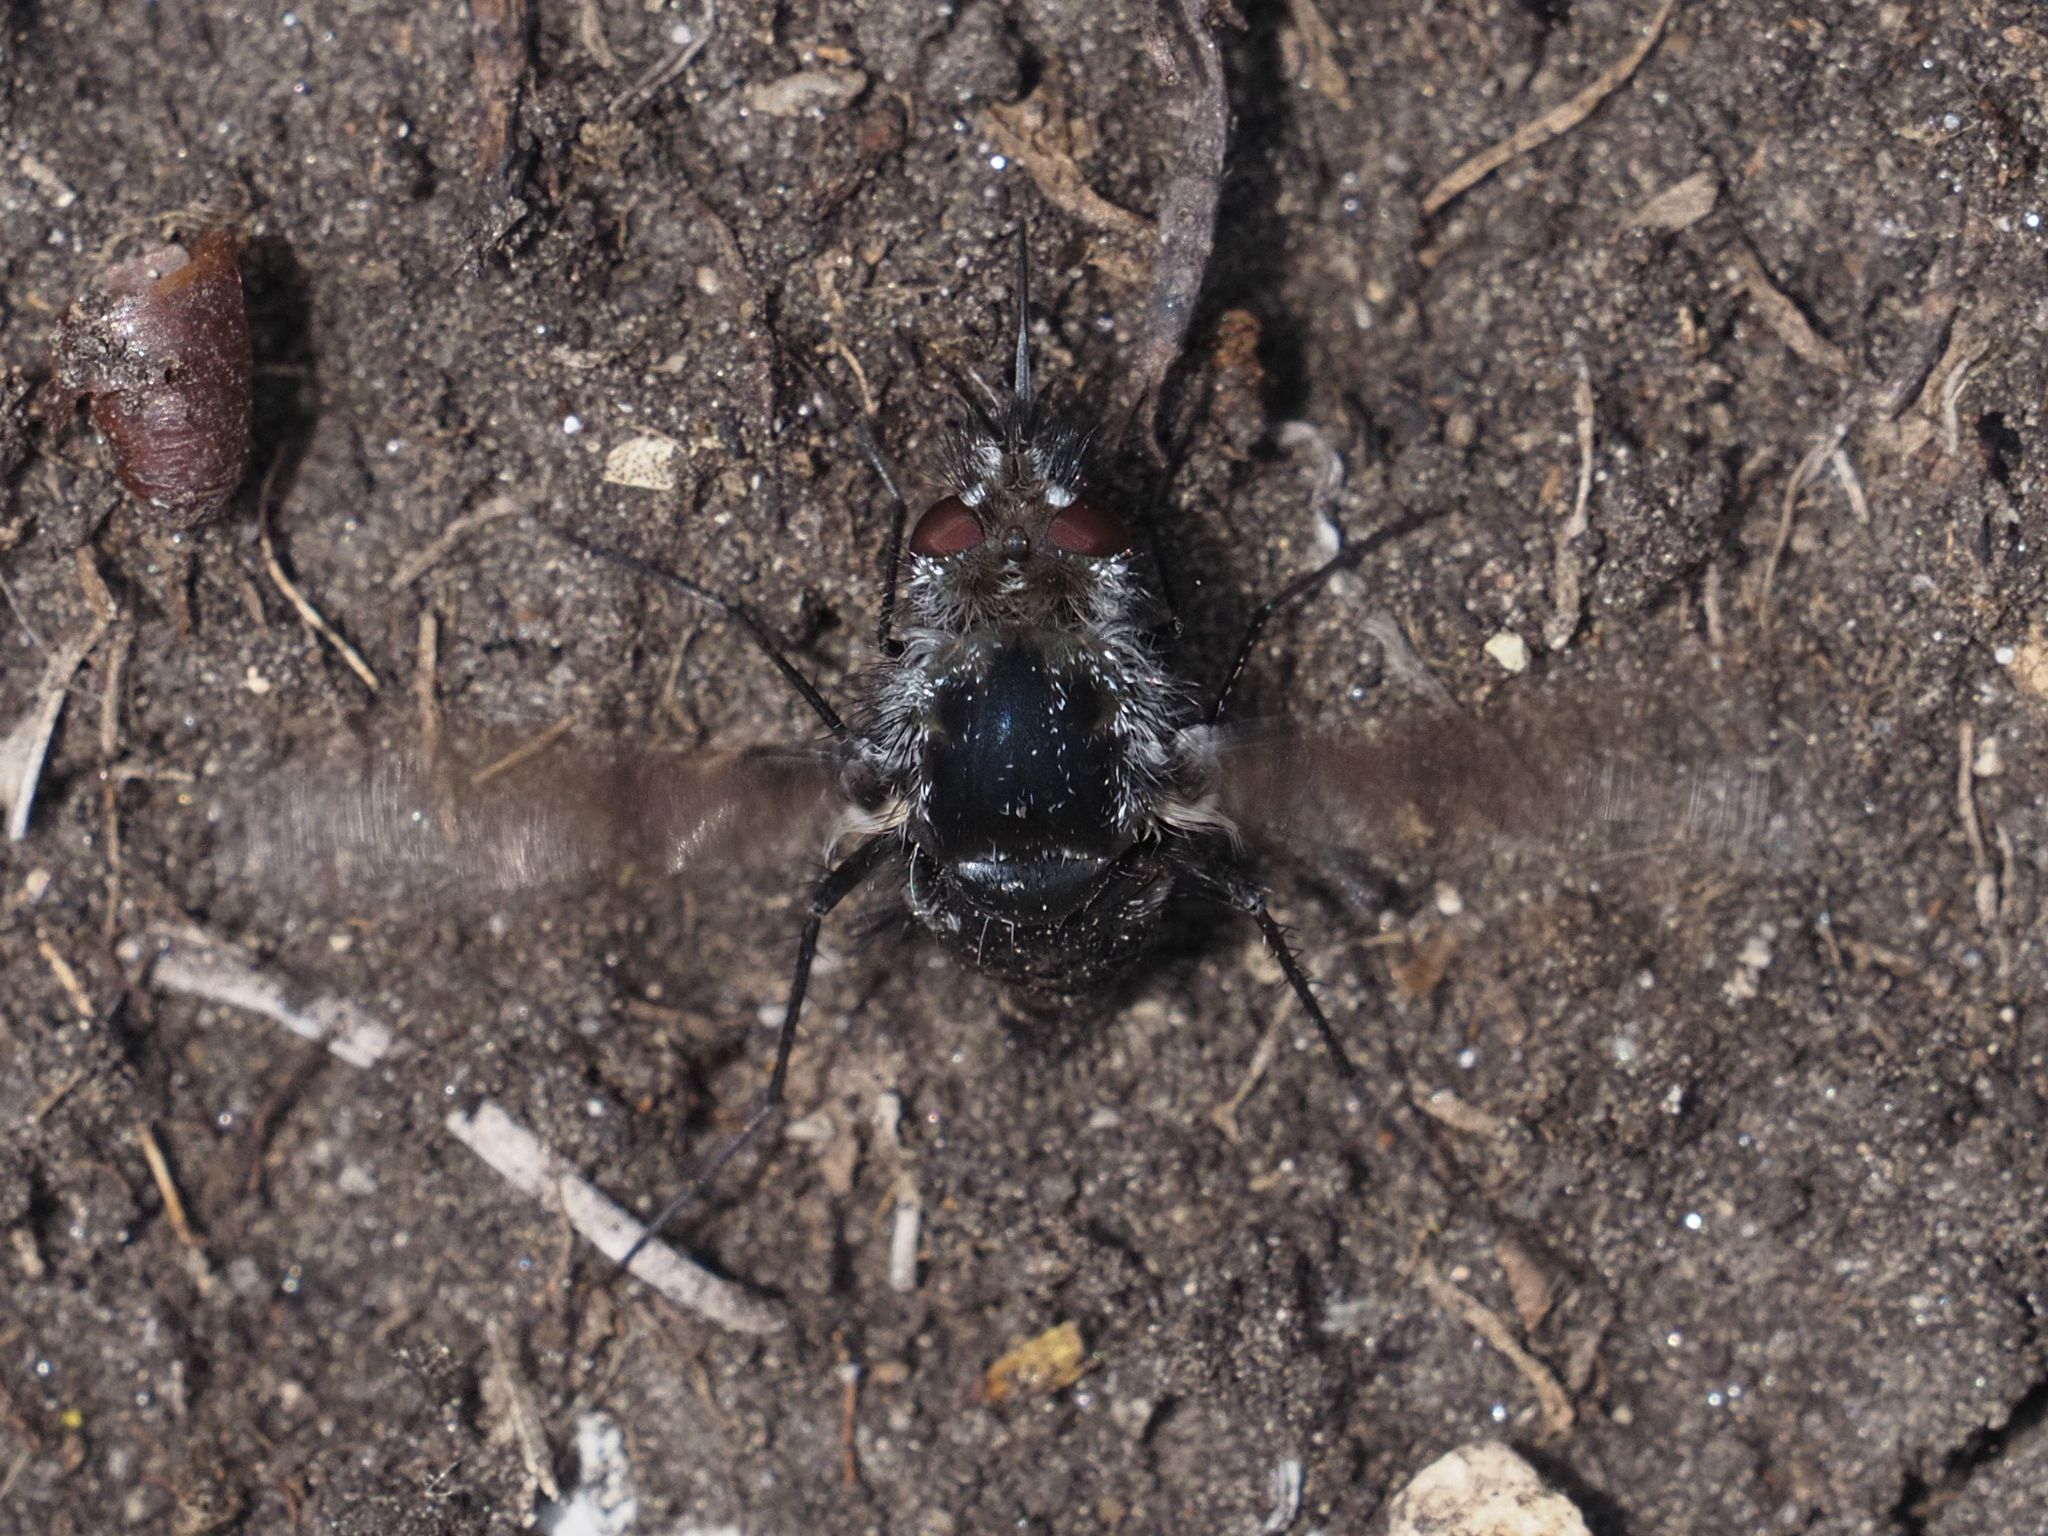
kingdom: Animalia
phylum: Arthropoda
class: Insecta
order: Diptera
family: Bombyliidae
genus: Bombylella
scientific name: Bombylella atra
